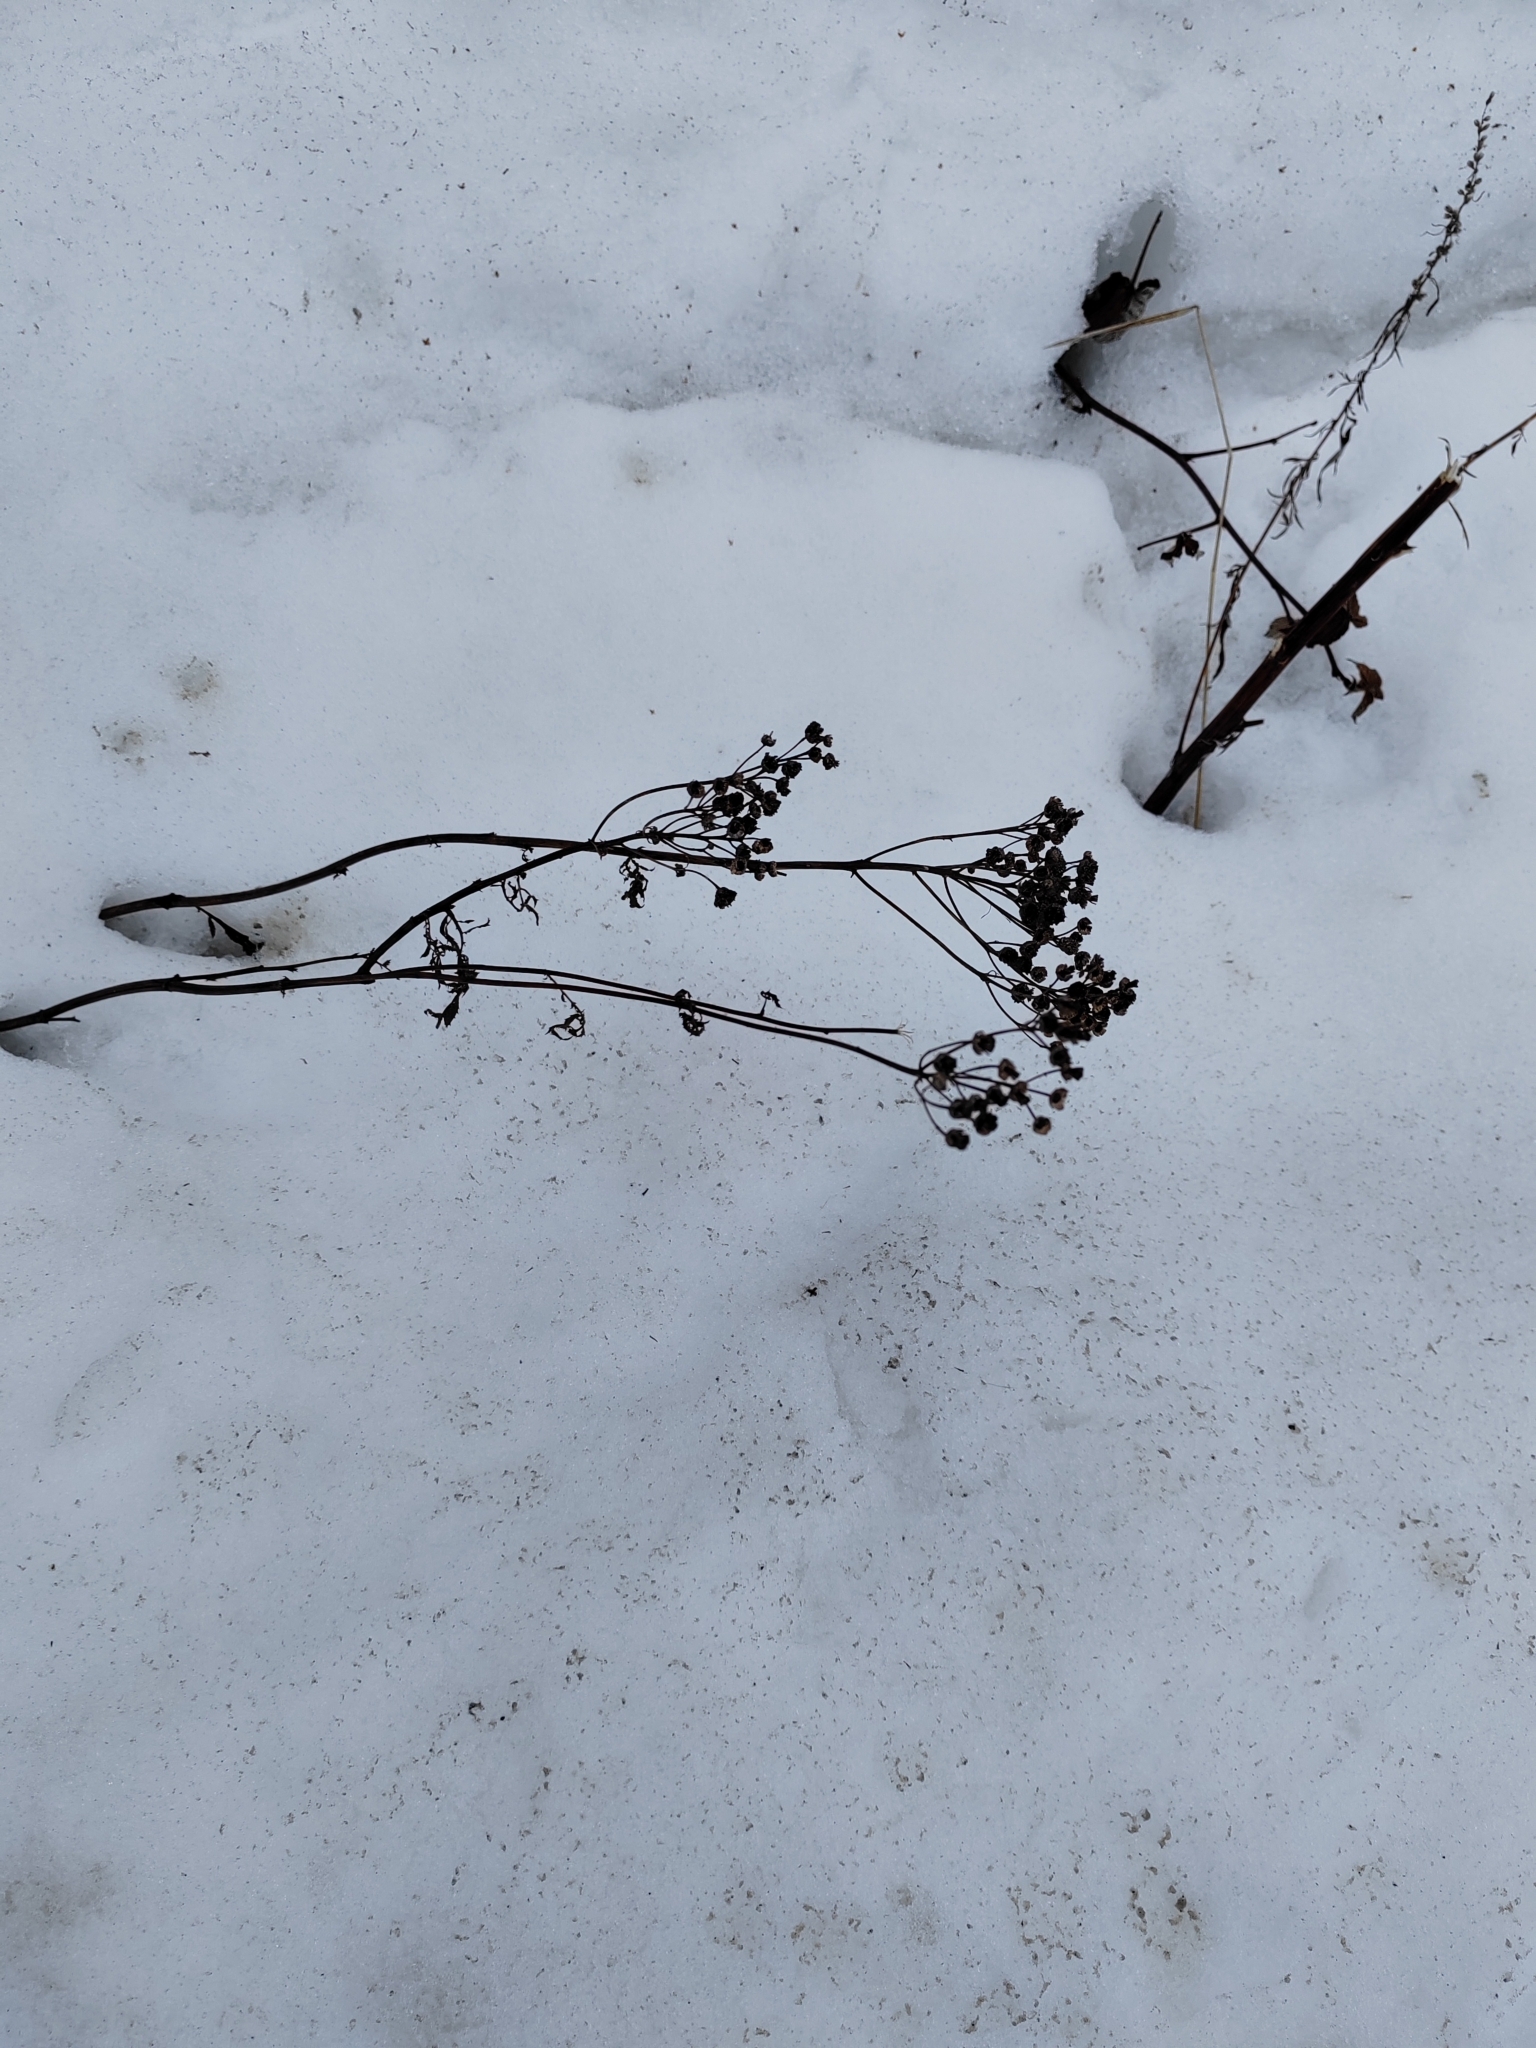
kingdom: Plantae
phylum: Tracheophyta
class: Magnoliopsida
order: Asterales
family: Asteraceae
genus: Tanacetum
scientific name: Tanacetum vulgare
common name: Common tansy
